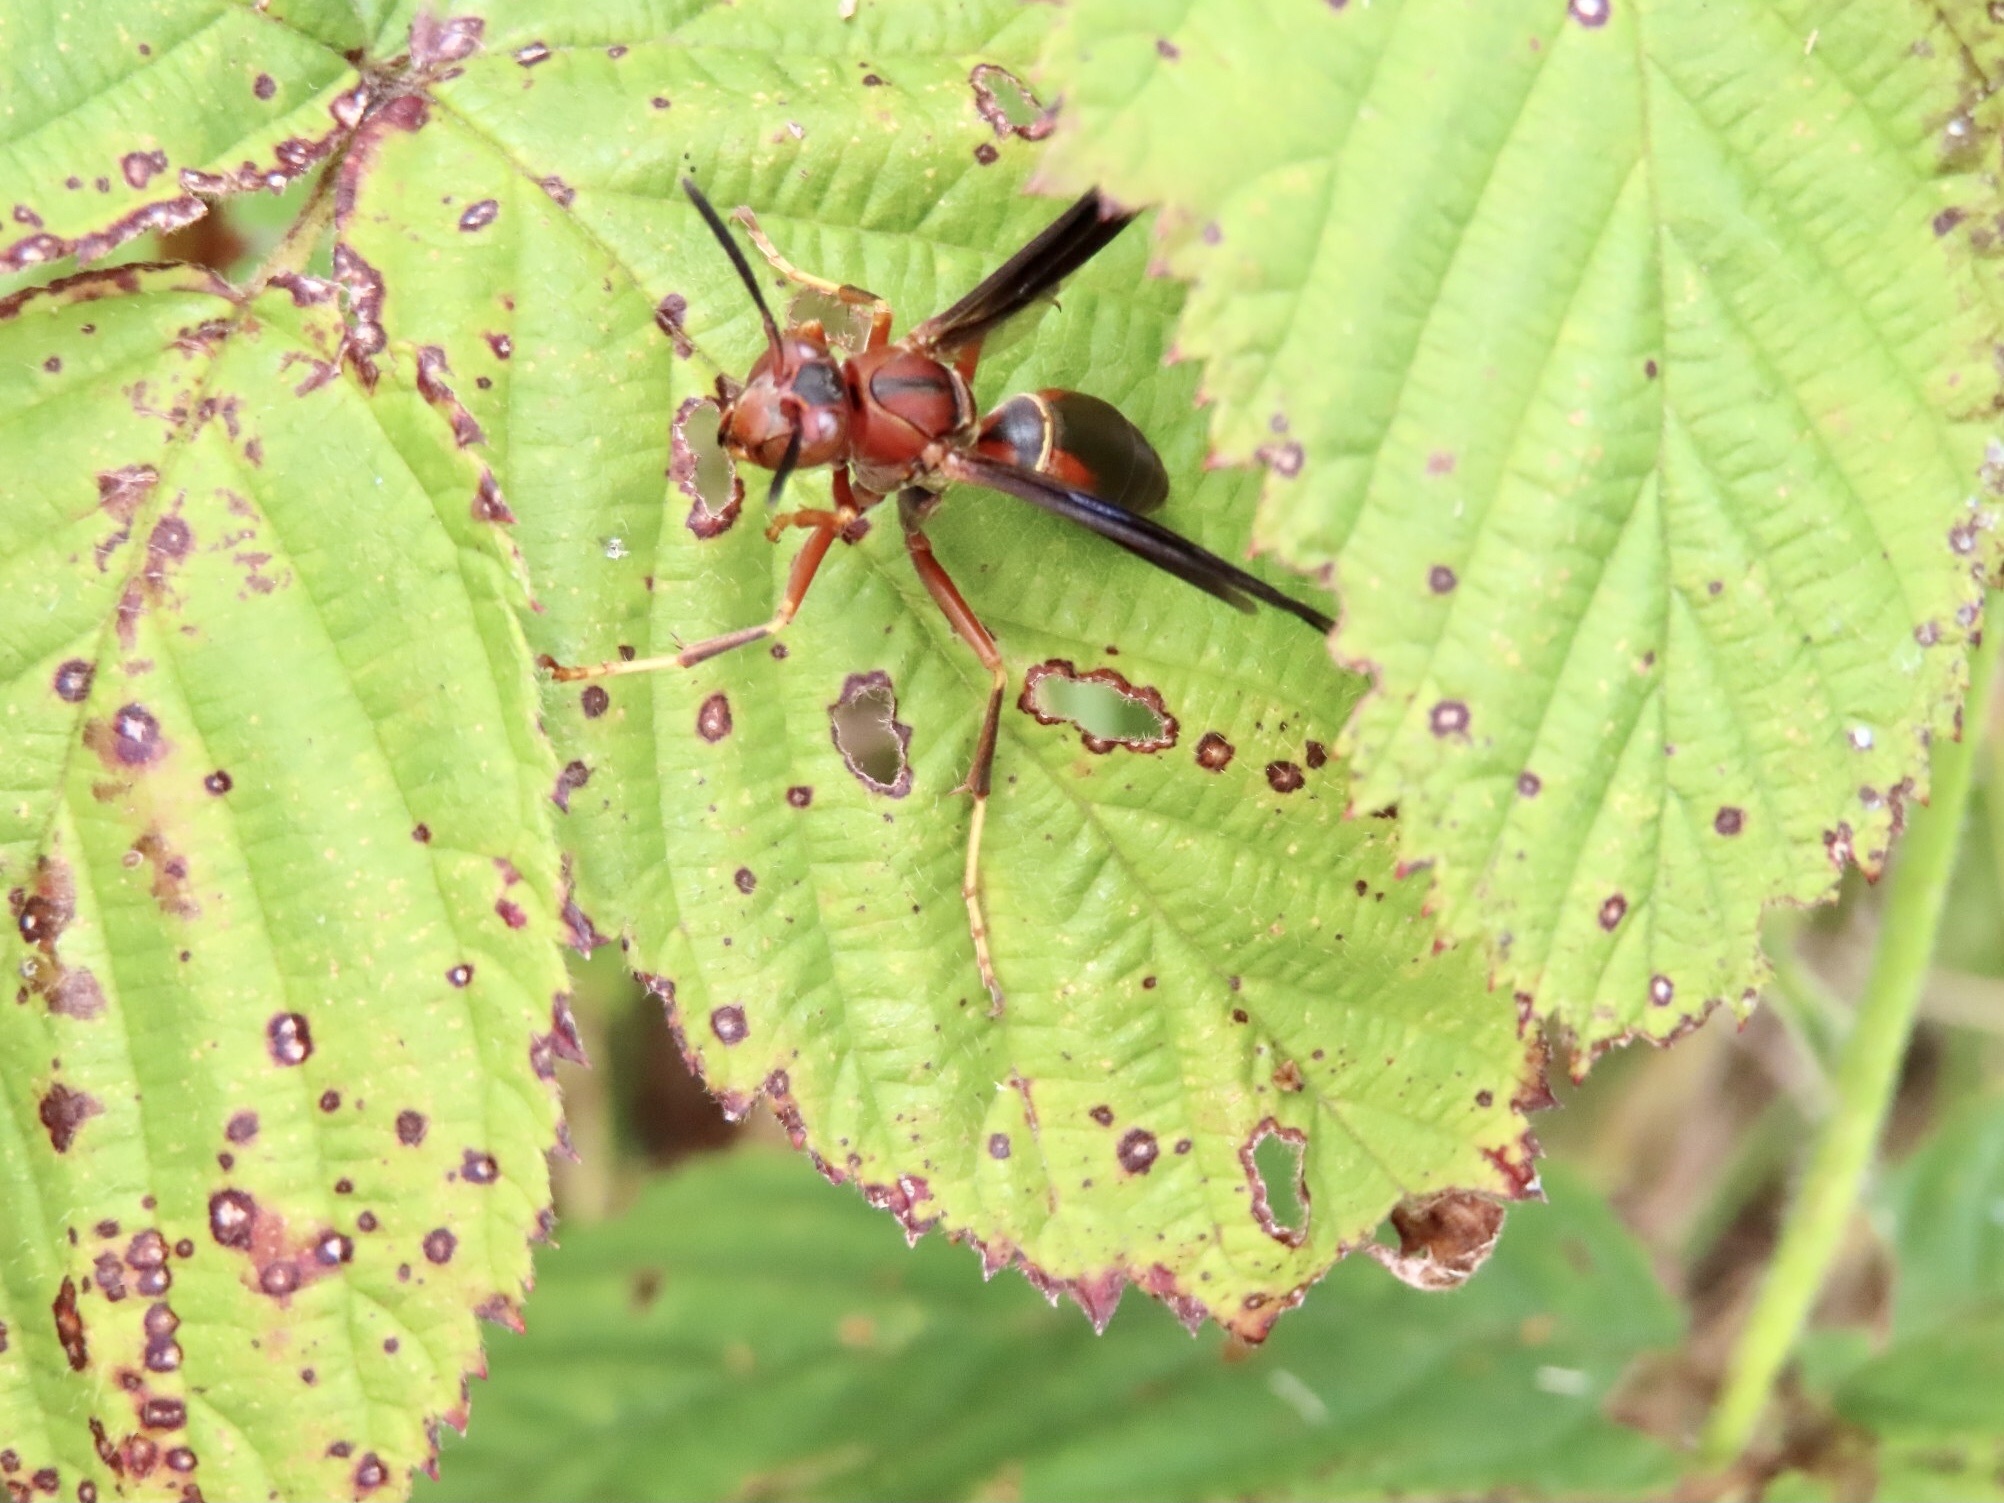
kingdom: Animalia
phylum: Arthropoda
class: Insecta
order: Hymenoptera
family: Eumenidae
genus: Polistes
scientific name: Polistes metricus
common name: Metric paper wasp
